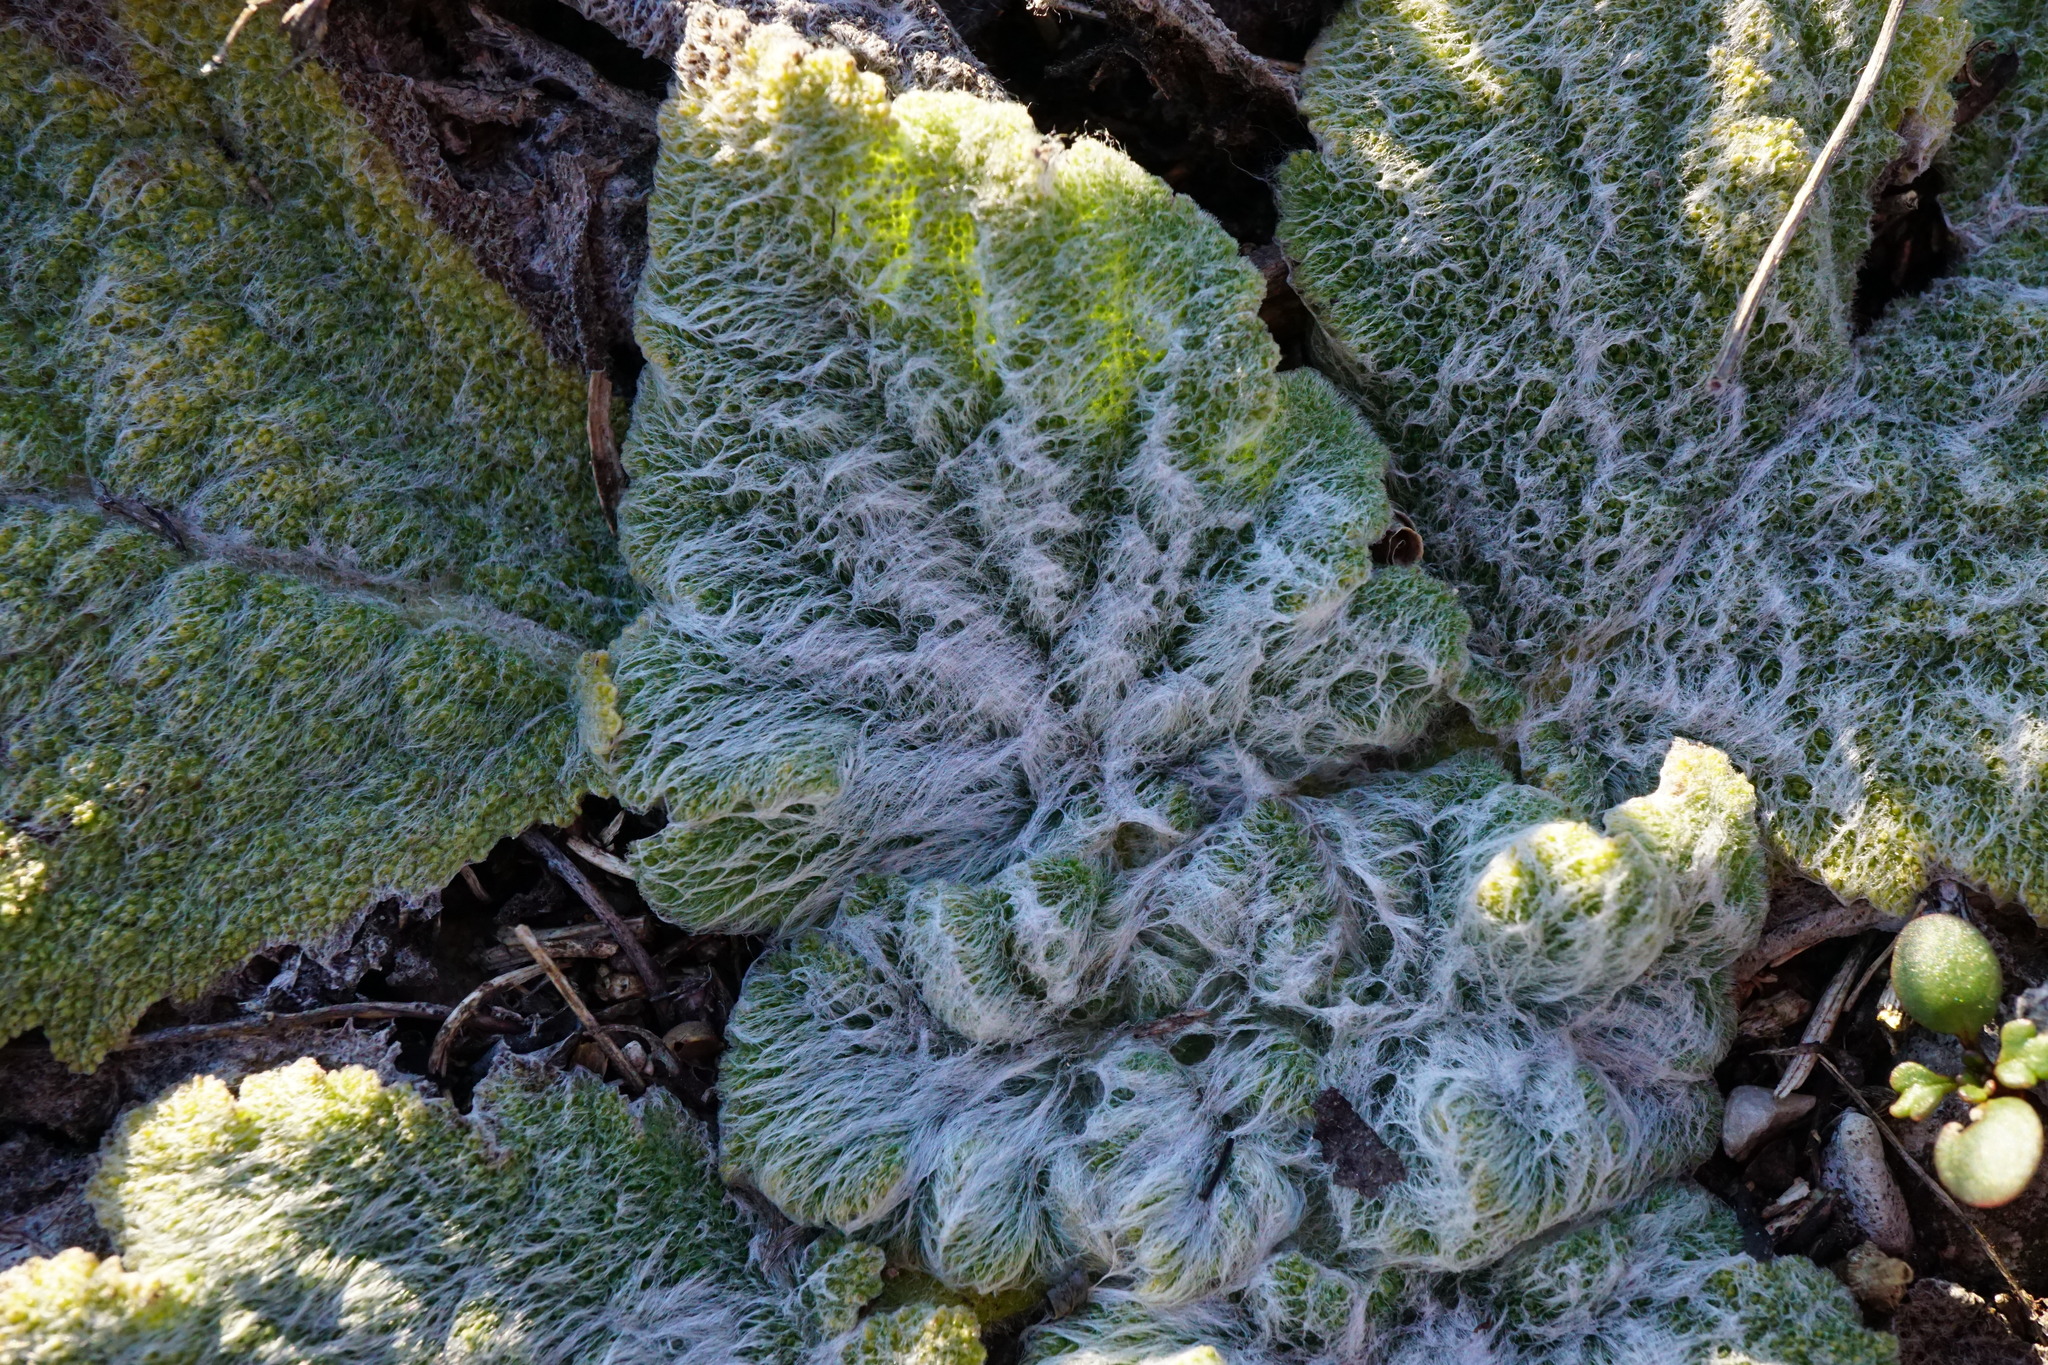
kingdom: Plantae
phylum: Tracheophyta
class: Magnoliopsida
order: Lamiales
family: Lamiaceae
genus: Salvia
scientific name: Salvia aethiopis
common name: Mediterranean sage
